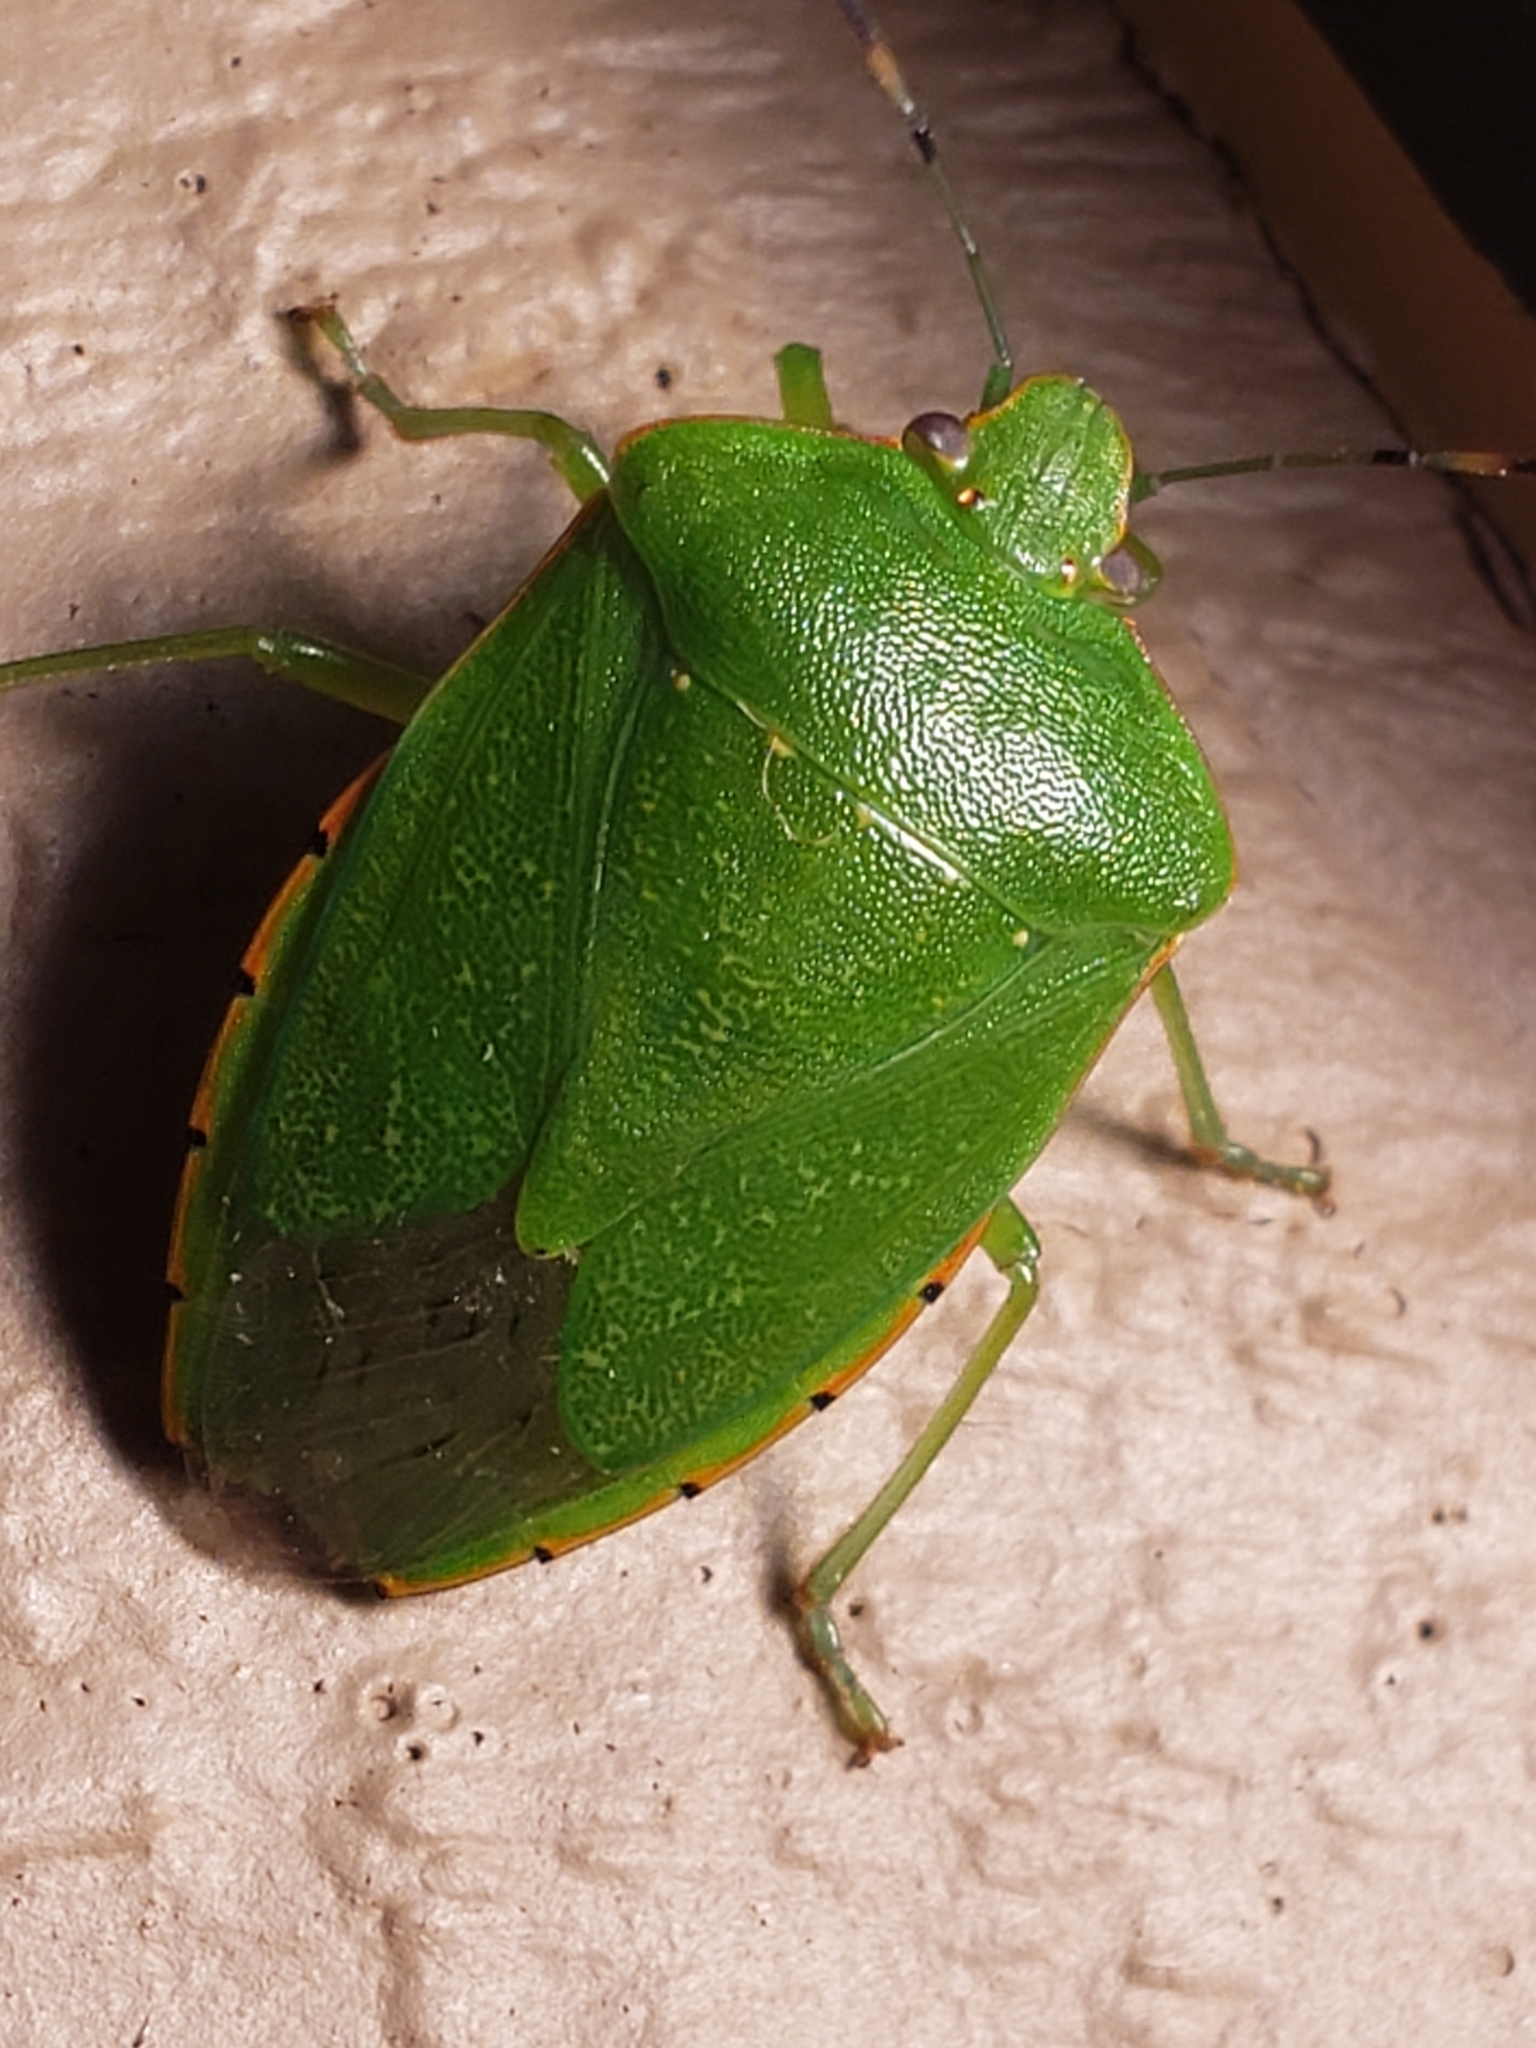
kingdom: Animalia
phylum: Arthropoda
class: Insecta
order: Hemiptera
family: Pentatomidae
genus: Chinavia
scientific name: Chinavia hilaris
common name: Green stink bug
